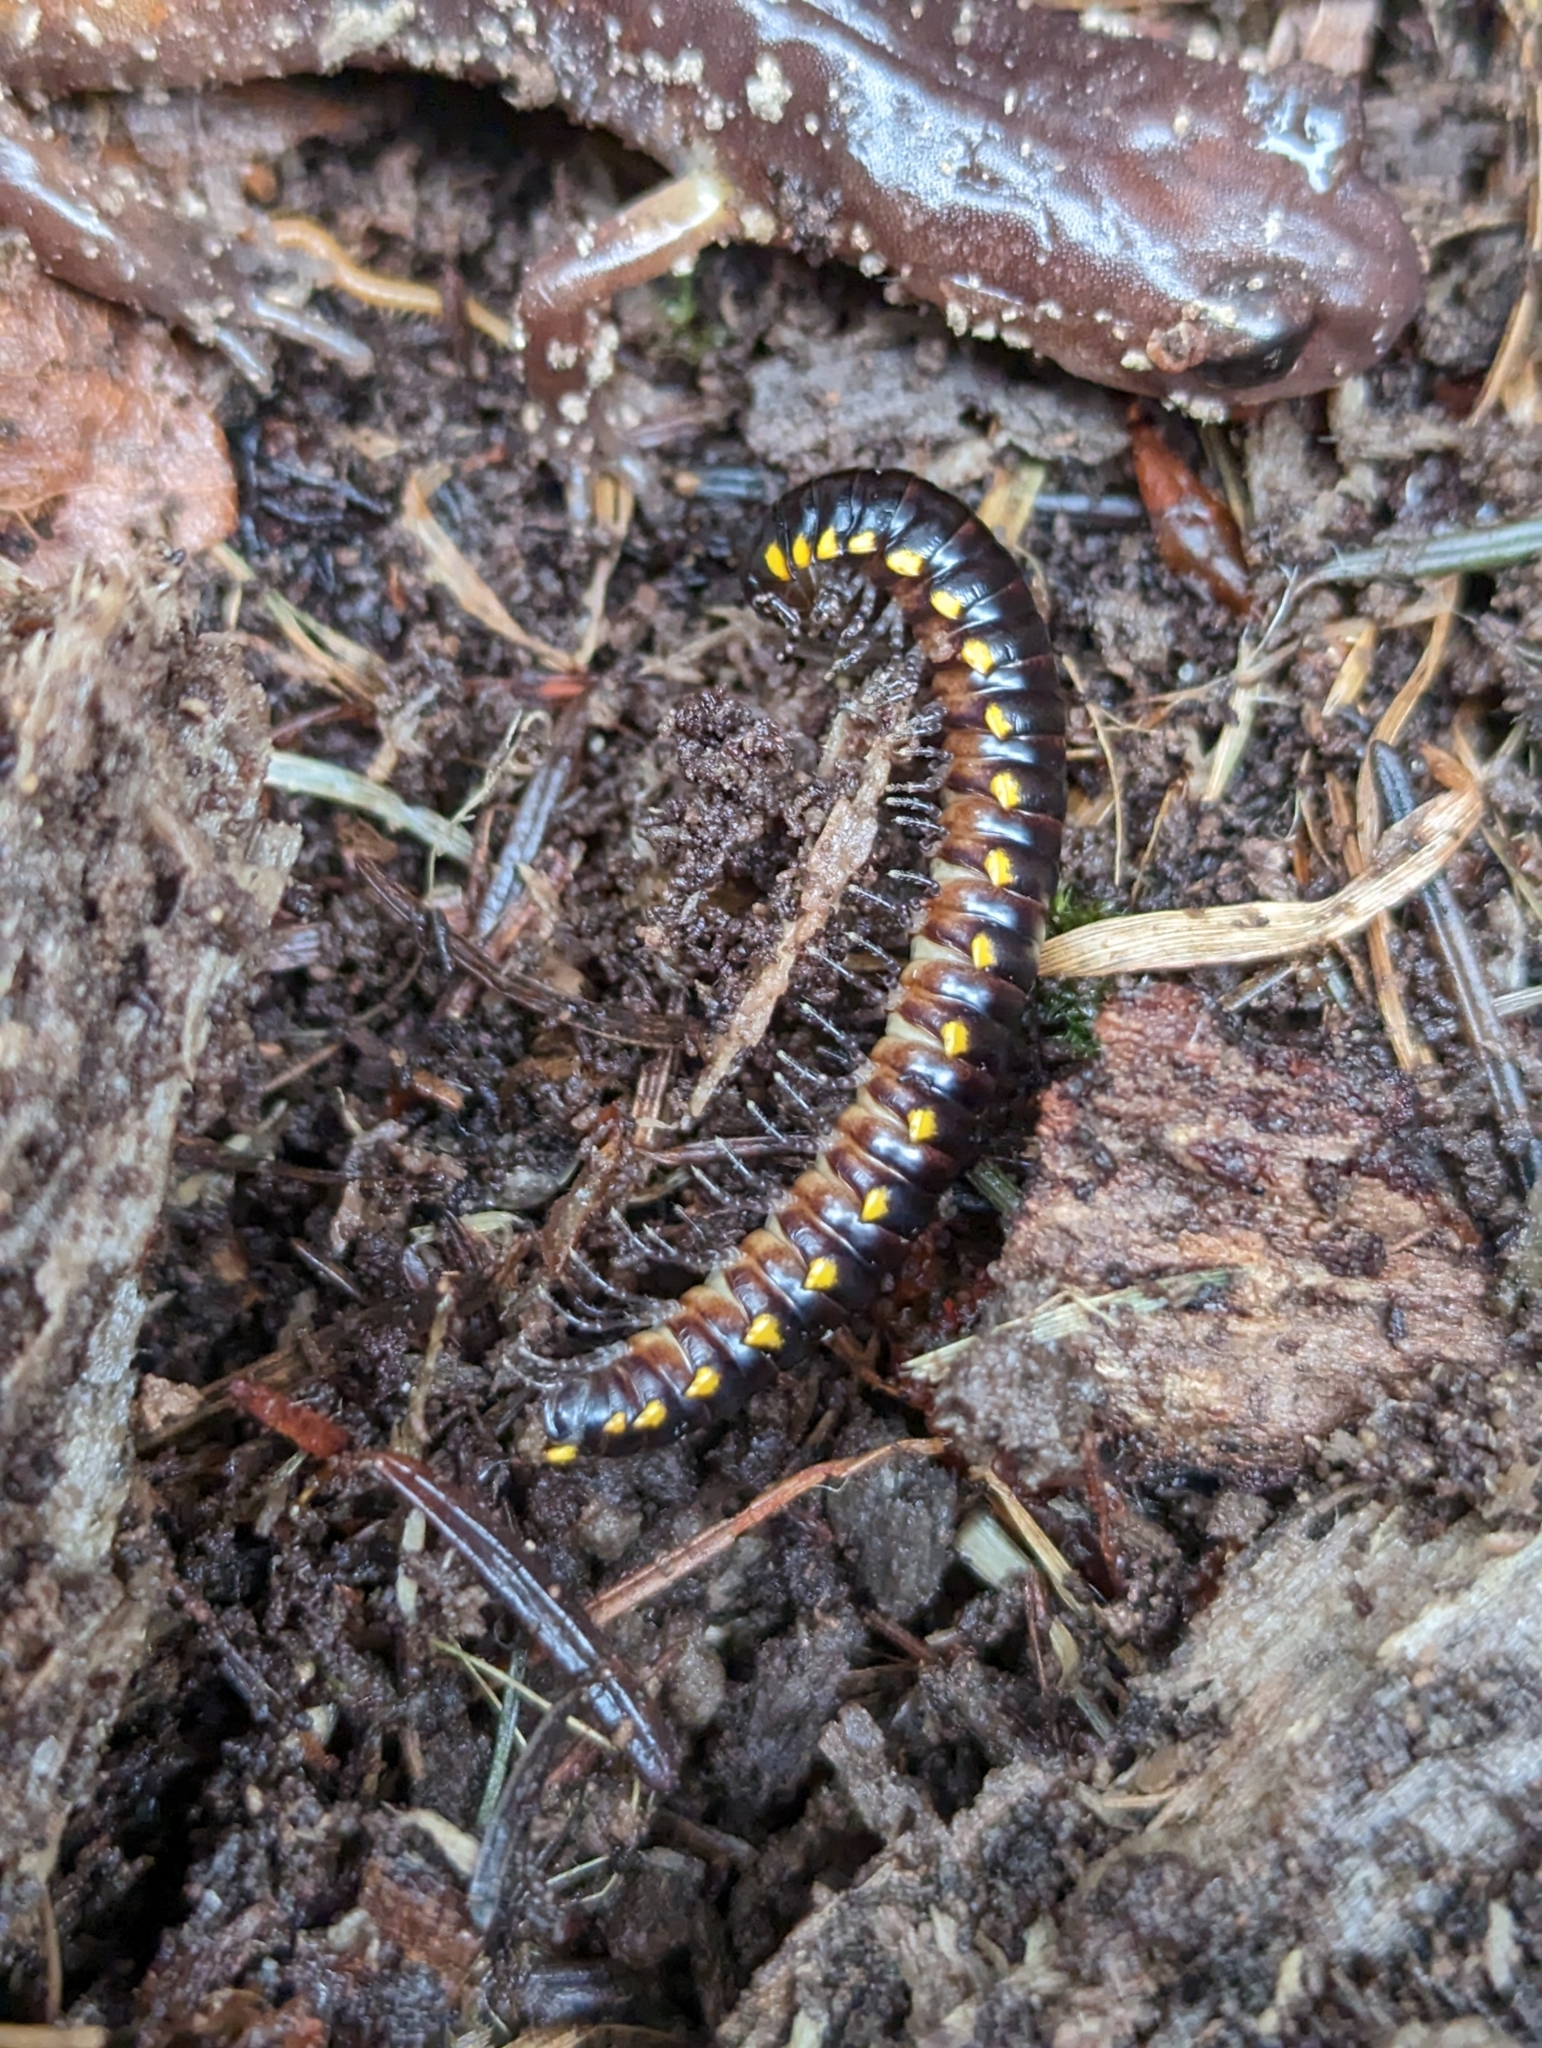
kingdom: Animalia
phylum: Arthropoda
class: Diplopoda
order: Polydesmida
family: Xystodesmidae
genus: Harpaphe
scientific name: Harpaphe haydeniana
